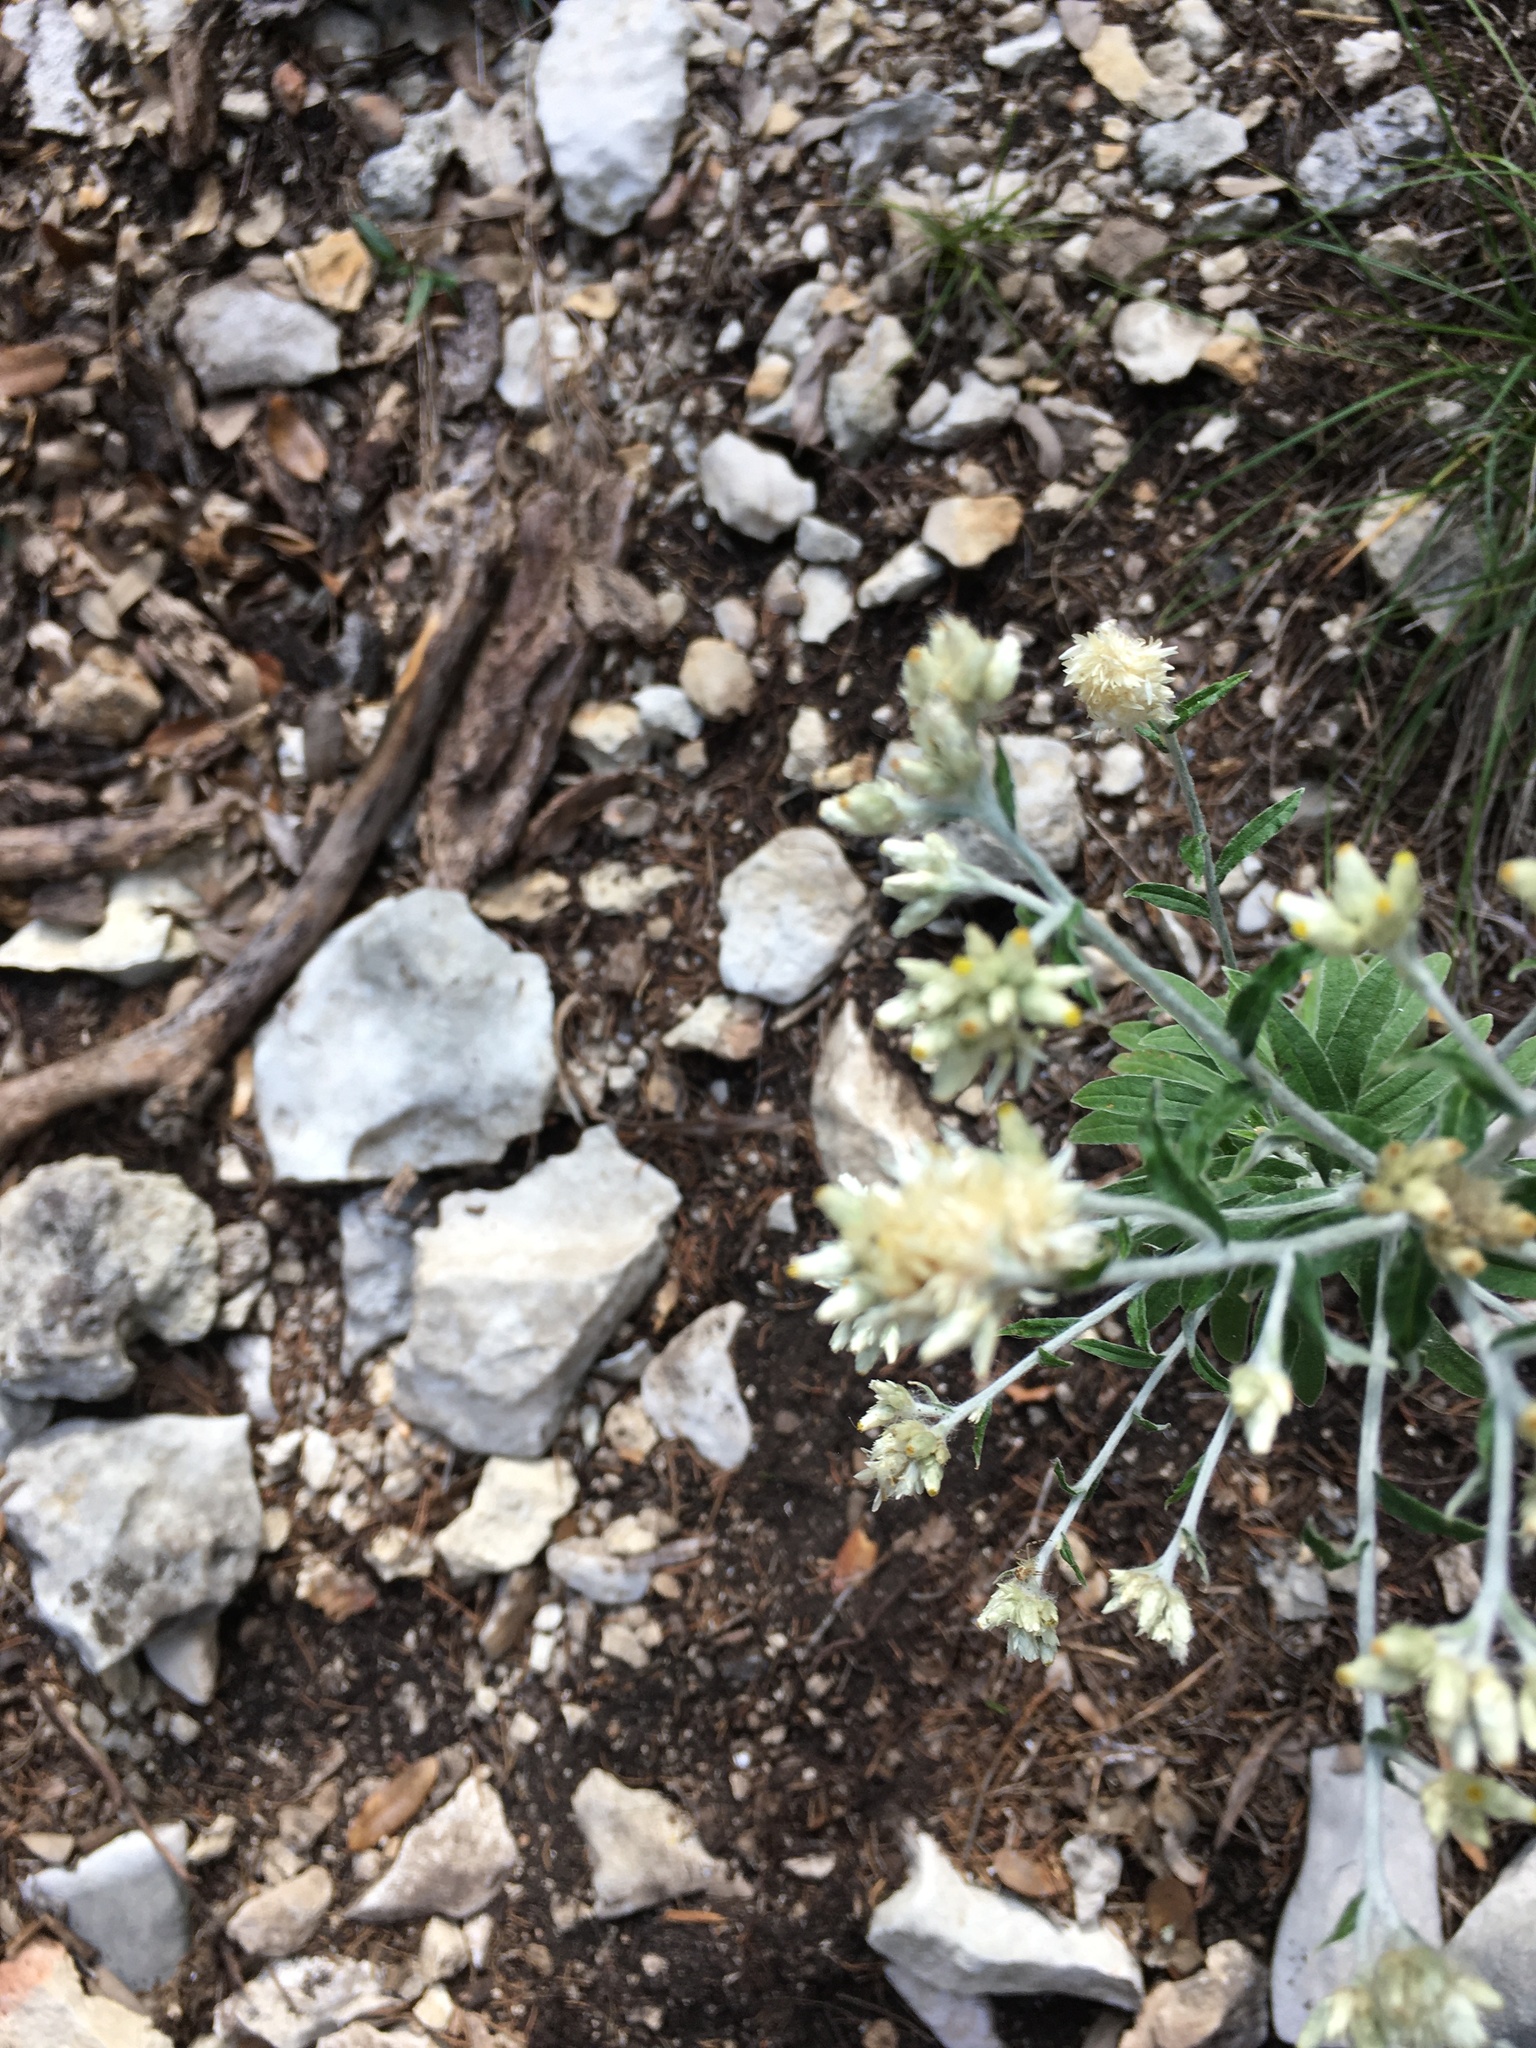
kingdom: Plantae
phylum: Tracheophyta
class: Magnoliopsida
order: Asterales
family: Asteraceae
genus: Pseudognaphalium
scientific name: Pseudognaphalium obtusifolium
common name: Eastern rabbit-tobacco
